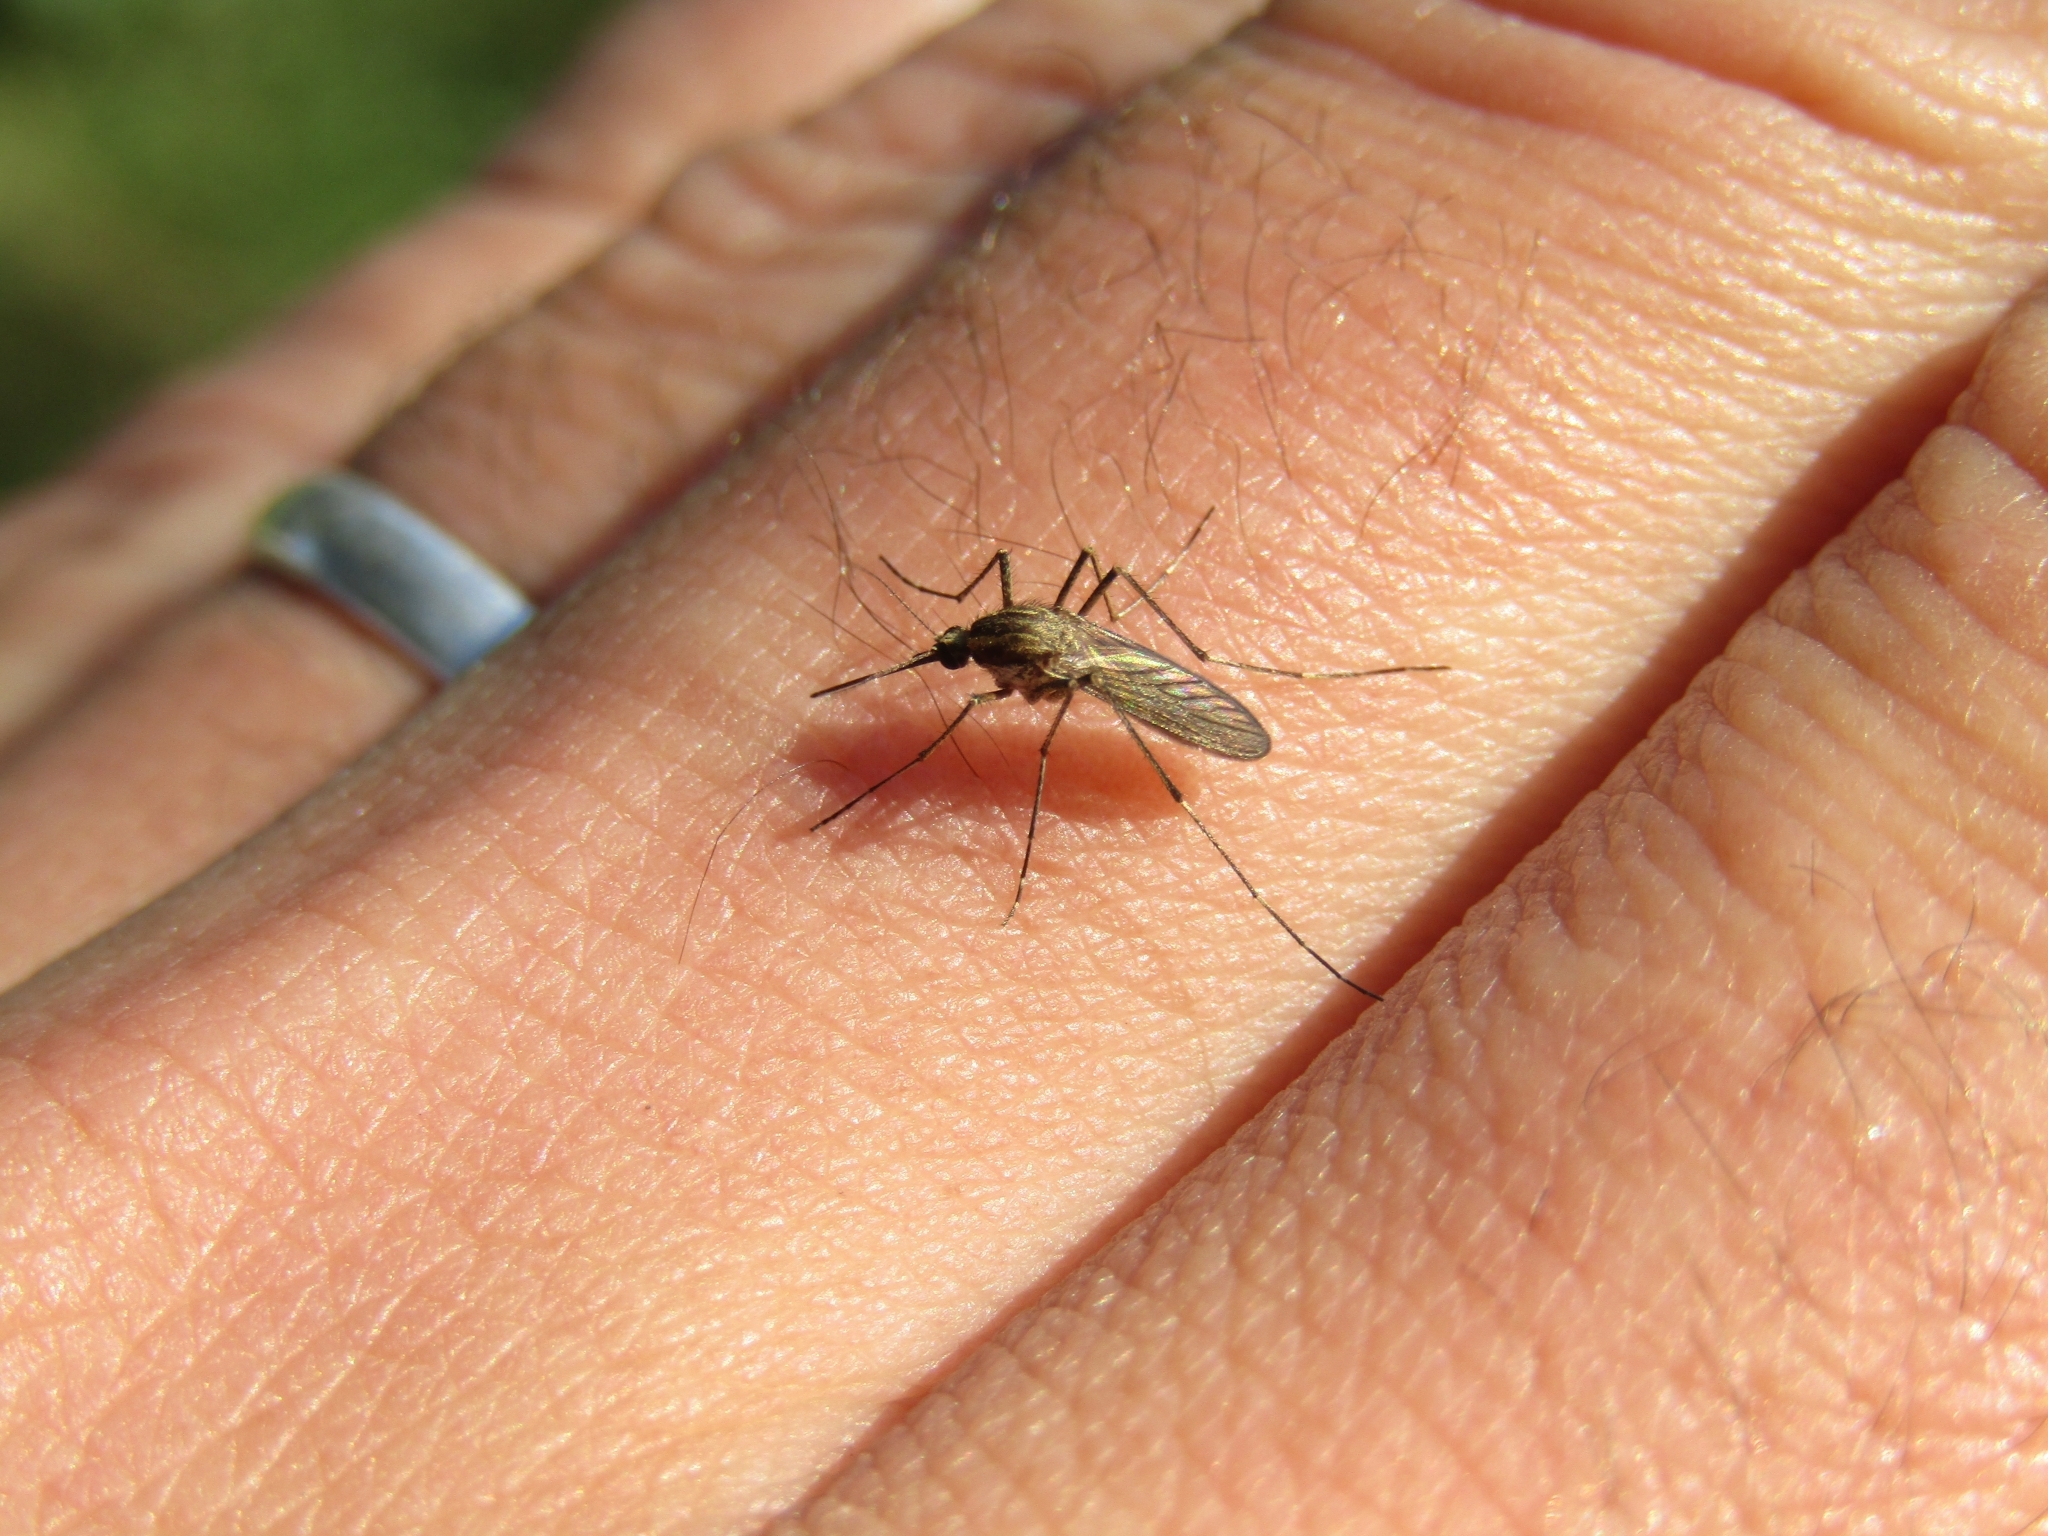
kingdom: Animalia
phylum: Arthropoda
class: Insecta
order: Diptera
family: Culicidae
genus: Aedes
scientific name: Aedes albifasciatus
